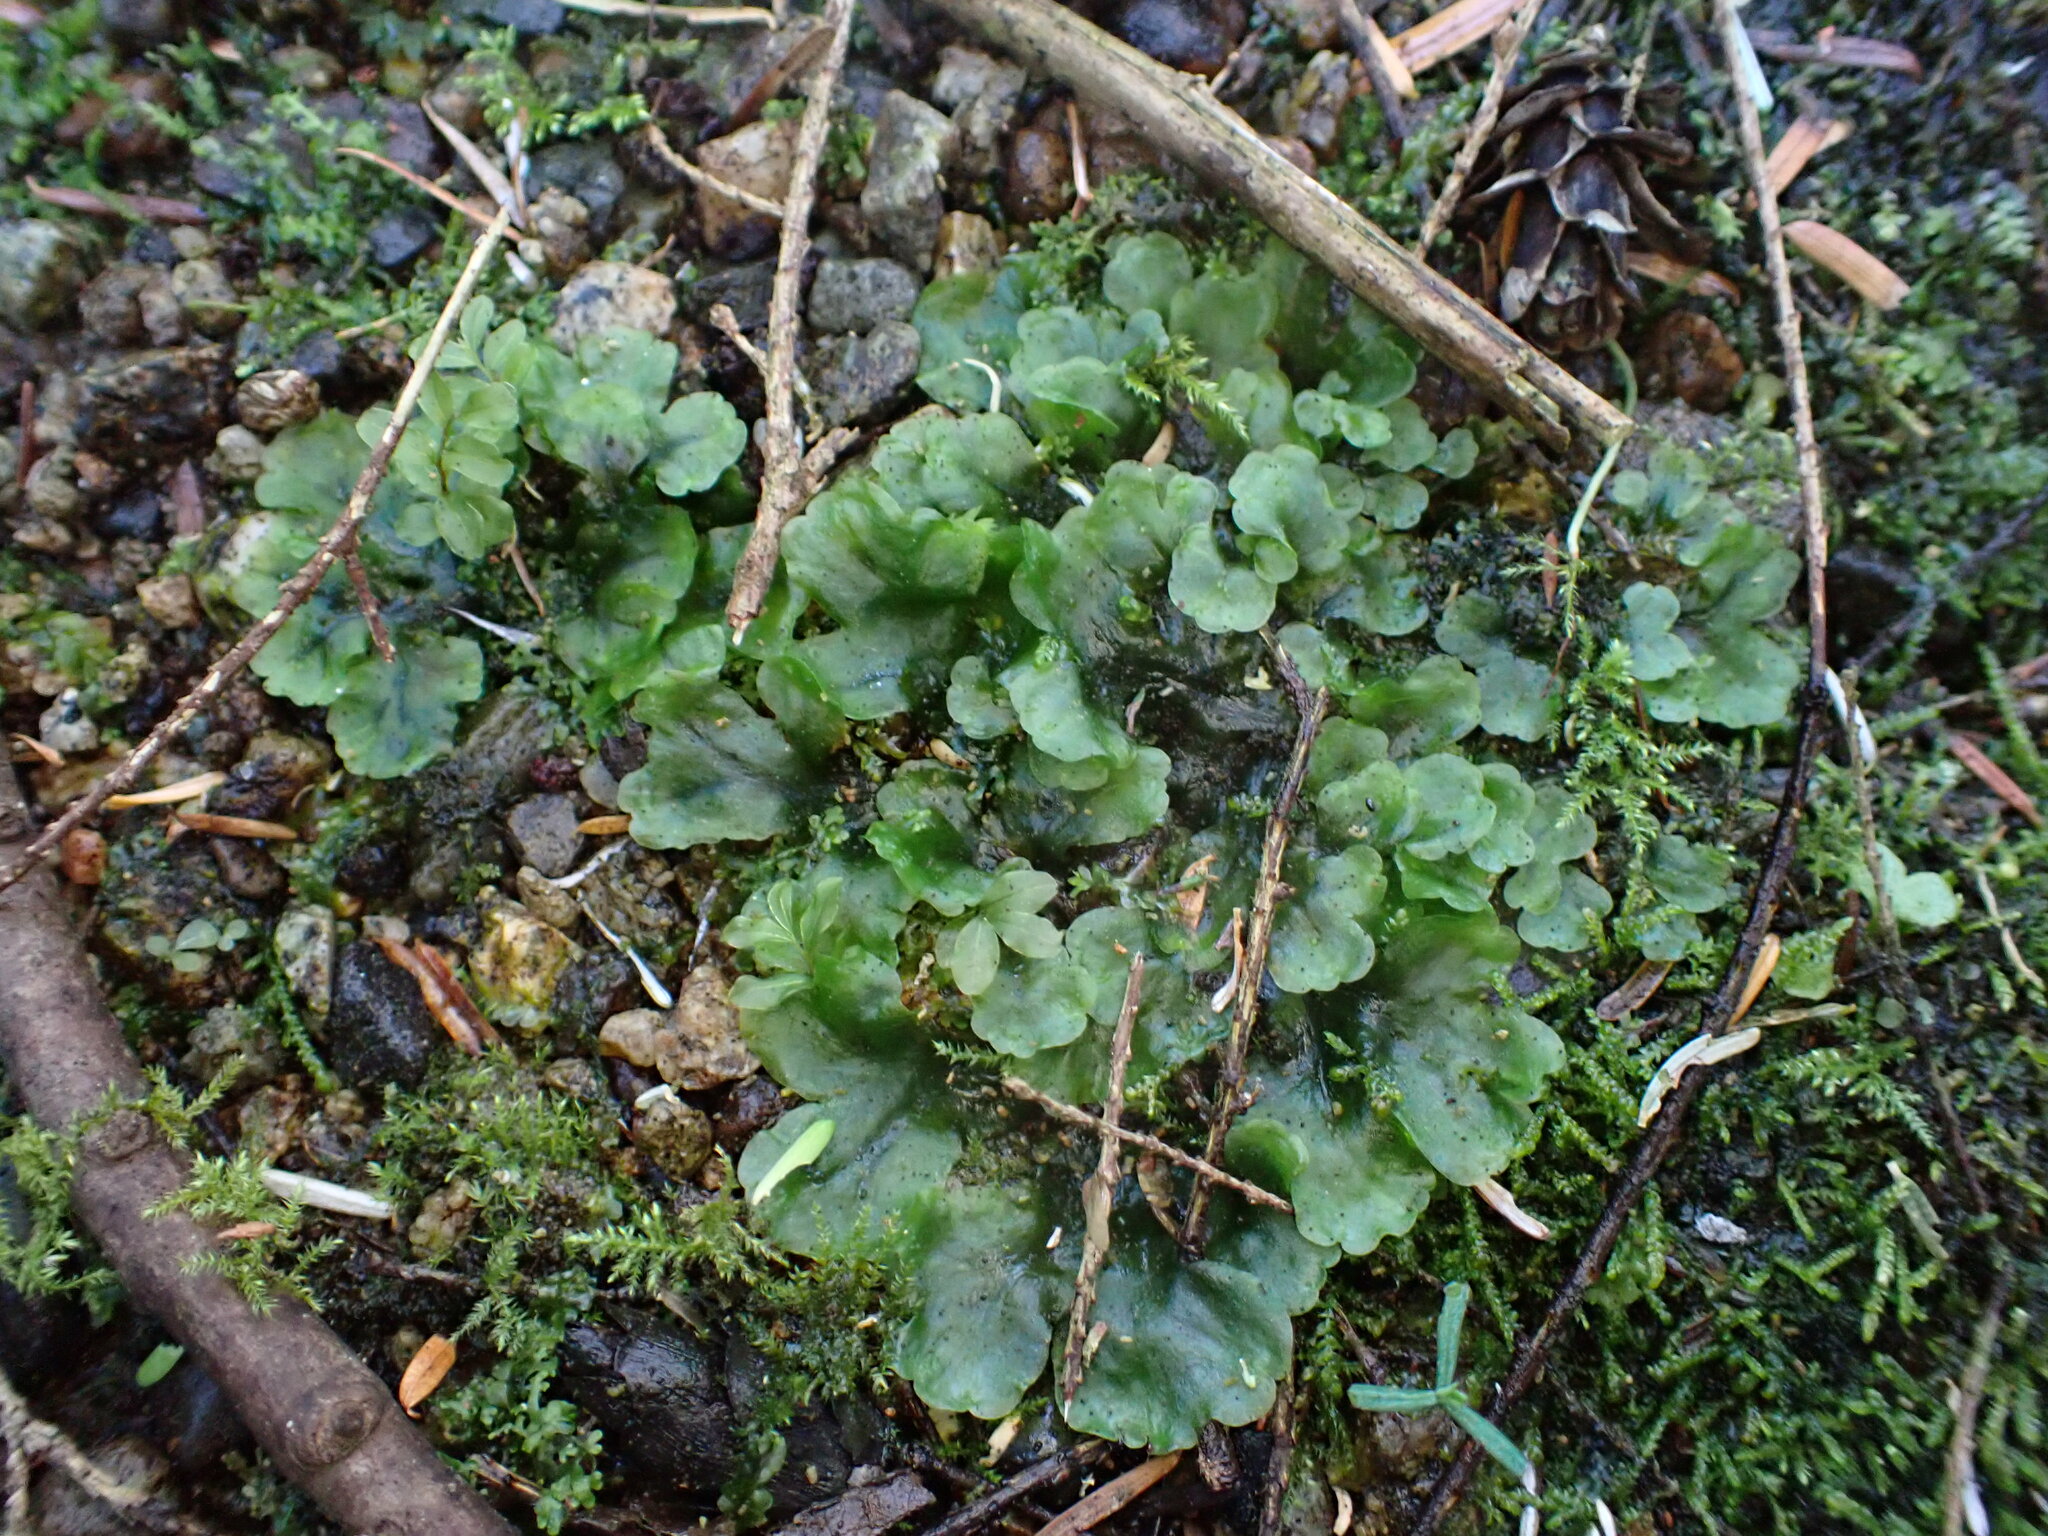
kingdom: Plantae
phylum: Marchantiophyta
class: Jungermanniopsida
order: Pelliales
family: Pelliaceae
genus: Pellia
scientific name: Pellia neesiana
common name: Nees  pellia
